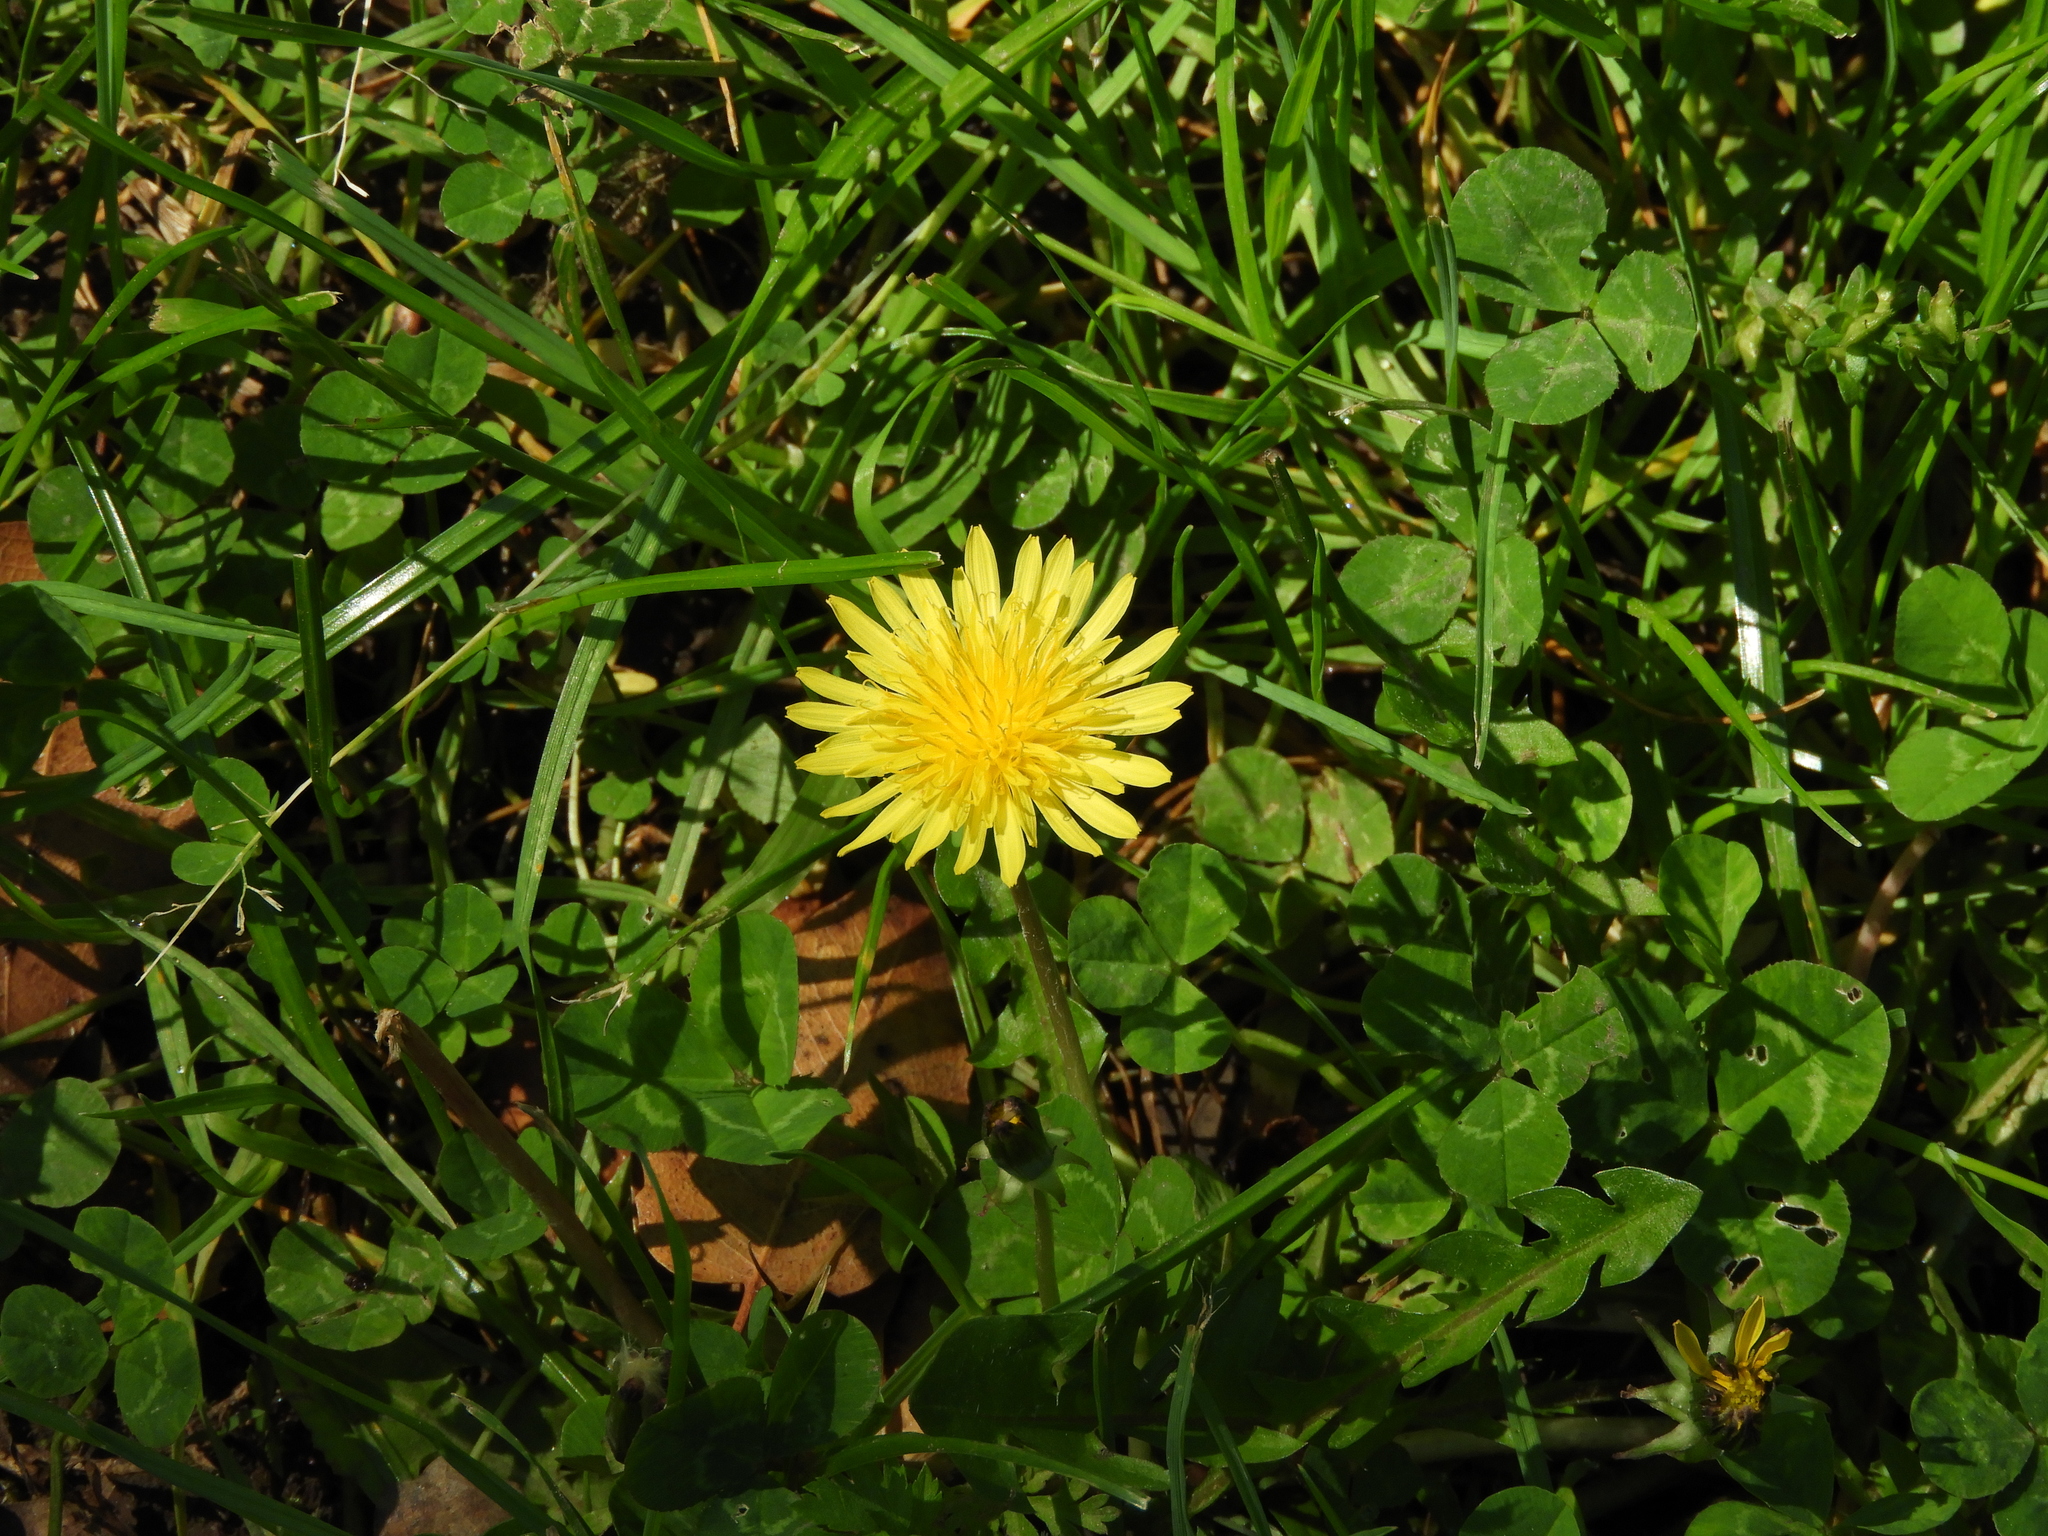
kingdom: Plantae
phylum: Tracheophyta
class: Magnoliopsida
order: Asterales
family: Asteraceae
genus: Taraxacum
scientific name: Taraxacum officinale
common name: Common dandelion
